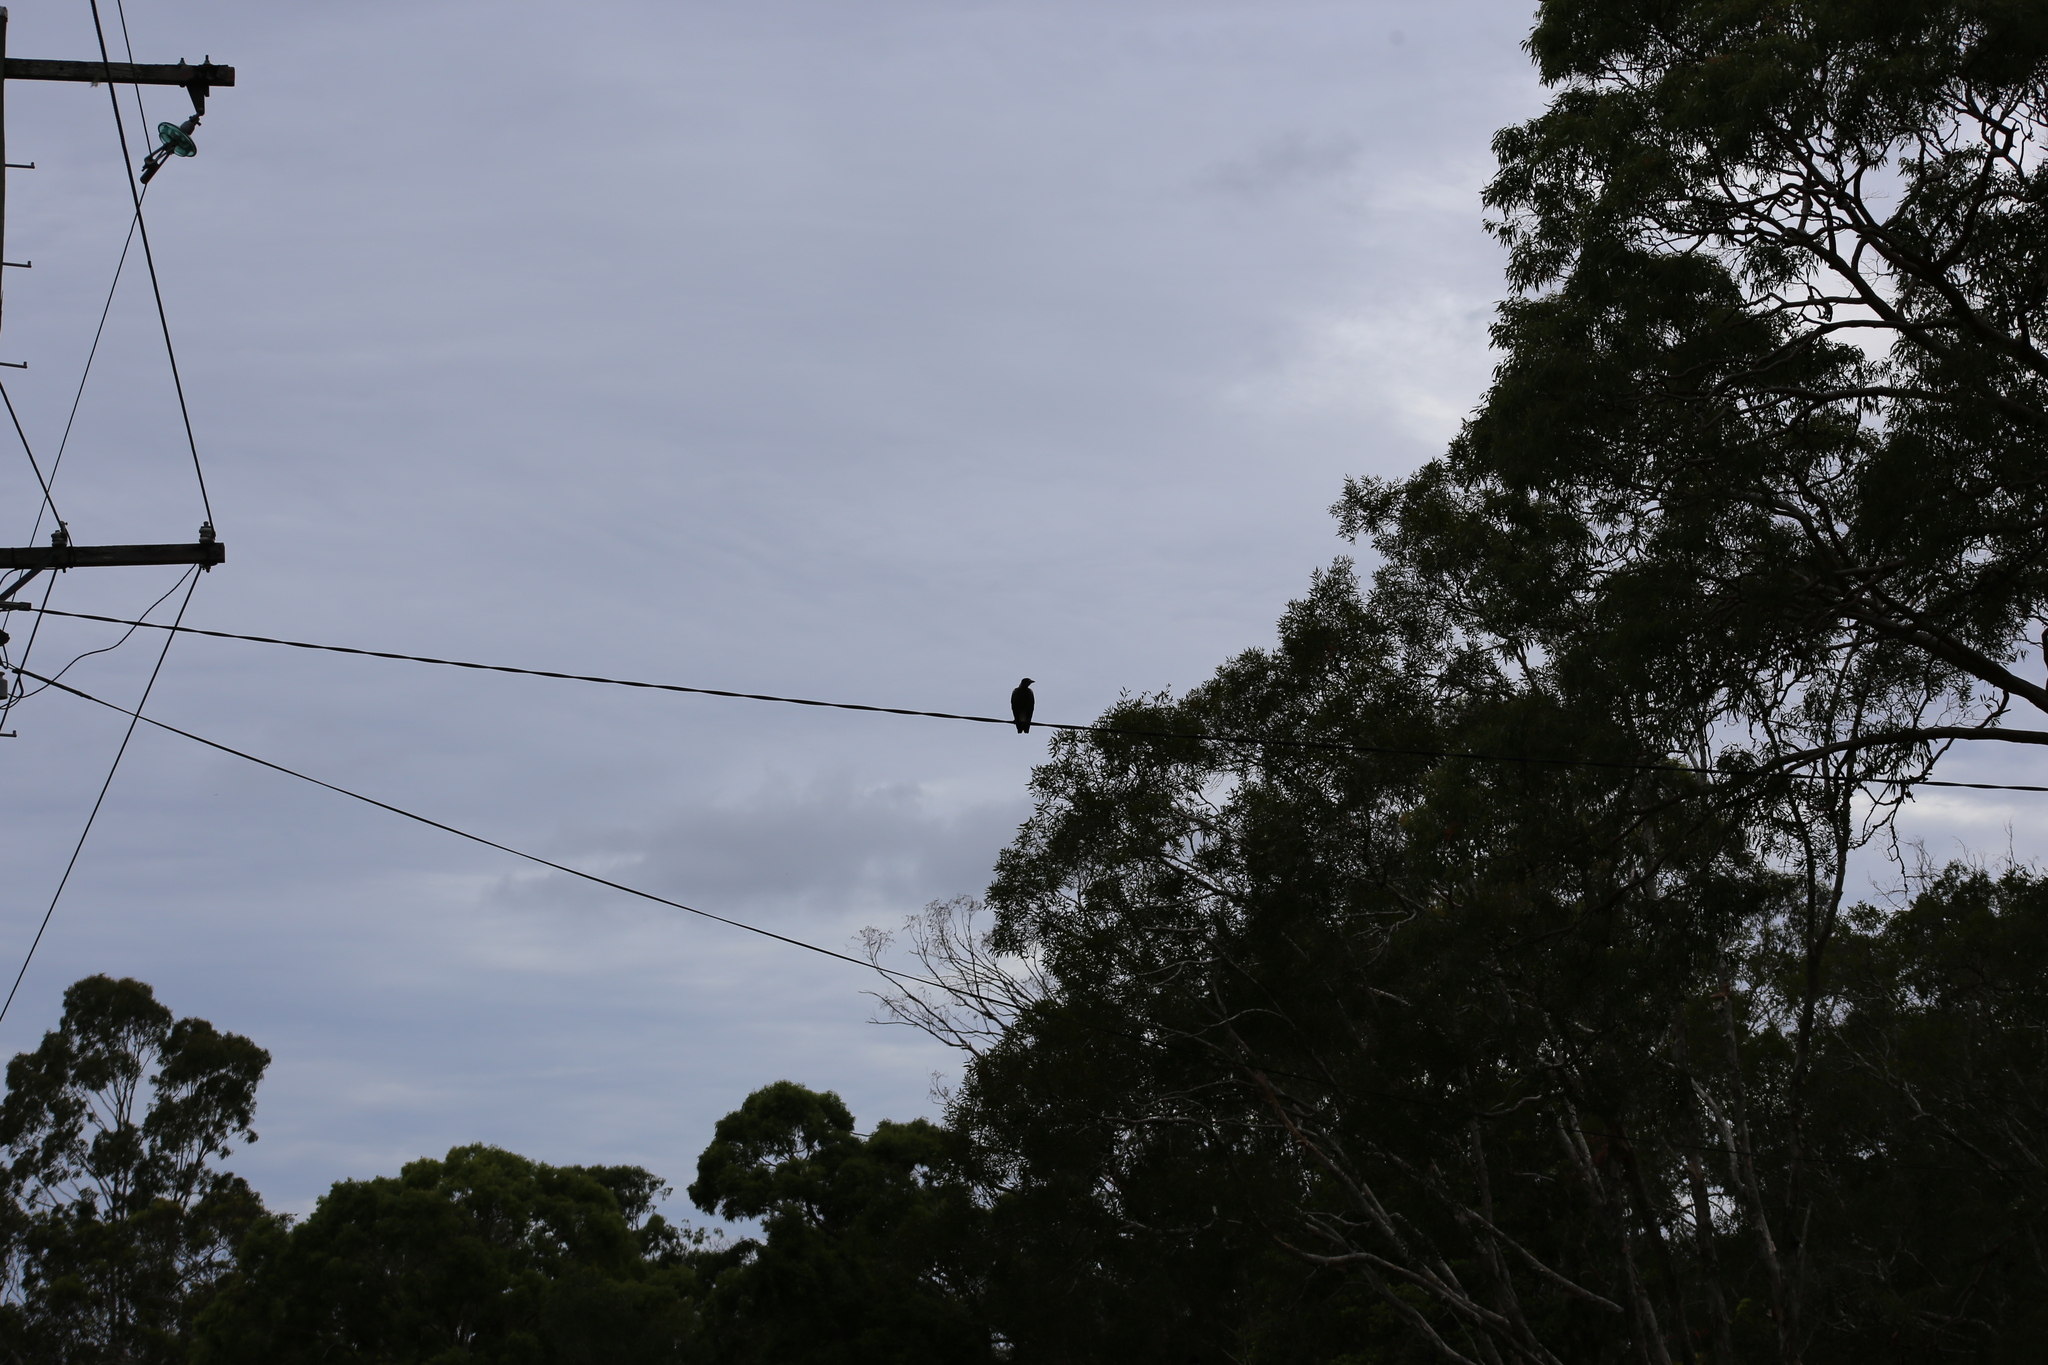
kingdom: Animalia
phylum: Chordata
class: Aves
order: Passeriformes
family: Cracticidae
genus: Gymnorhina
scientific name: Gymnorhina tibicen
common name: Australian magpie
